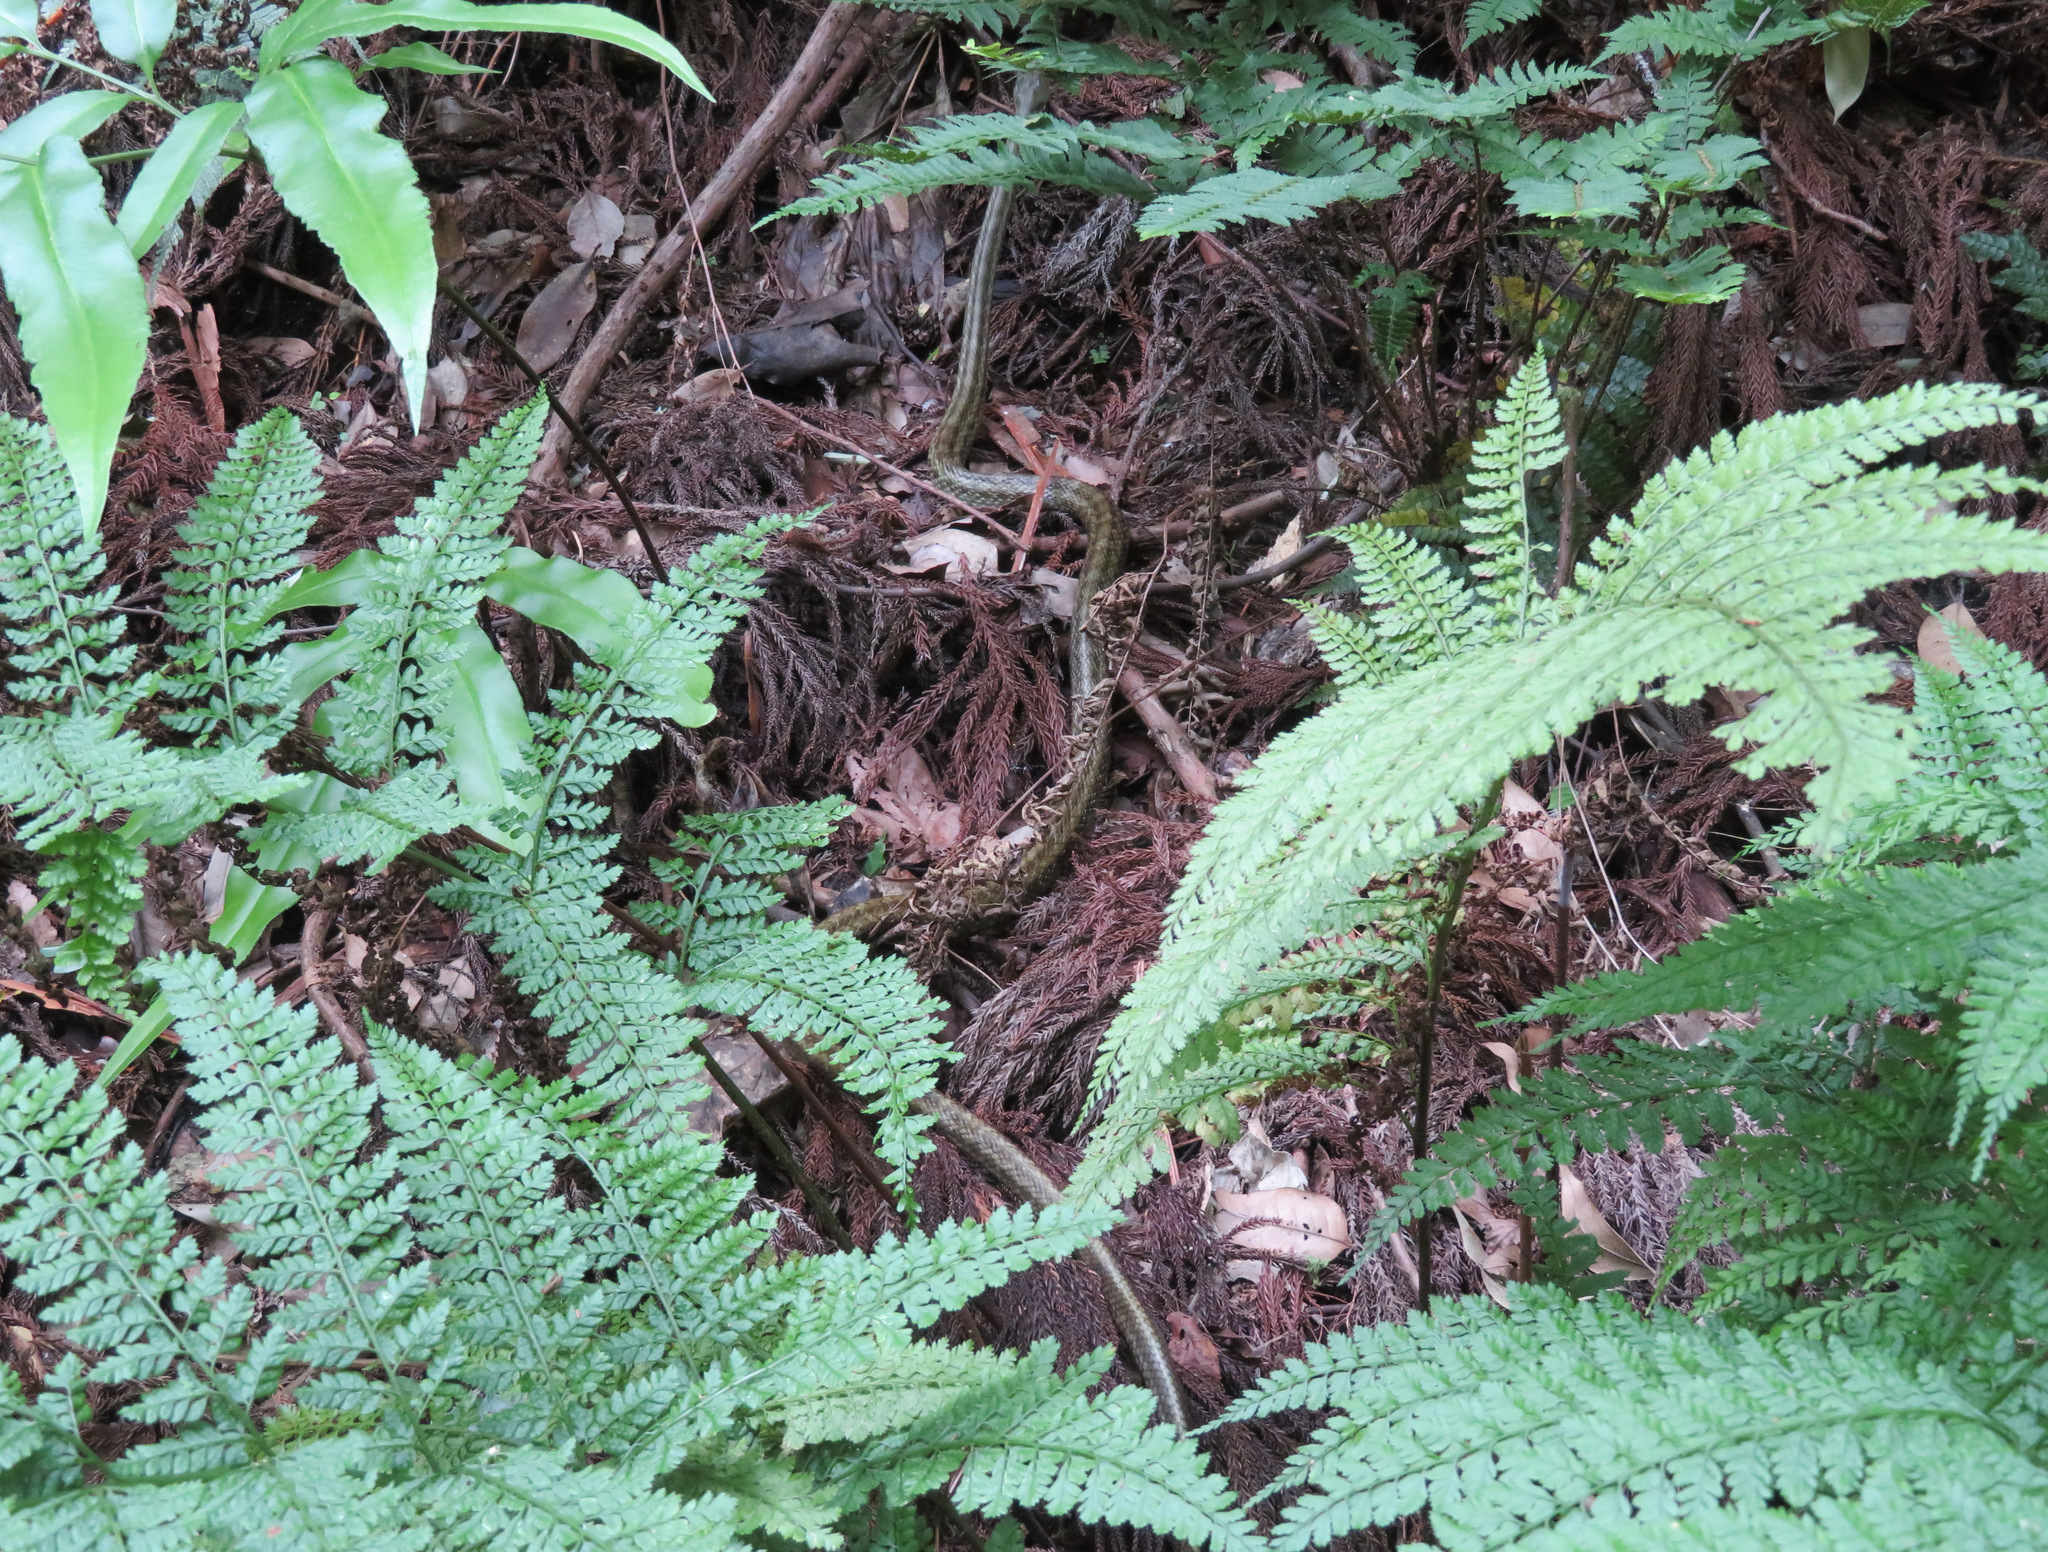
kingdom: Animalia
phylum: Chordata
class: Squamata
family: Colubridae
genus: Elaphe
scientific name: Elaphe climacophora
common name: Japanese ratsnake
